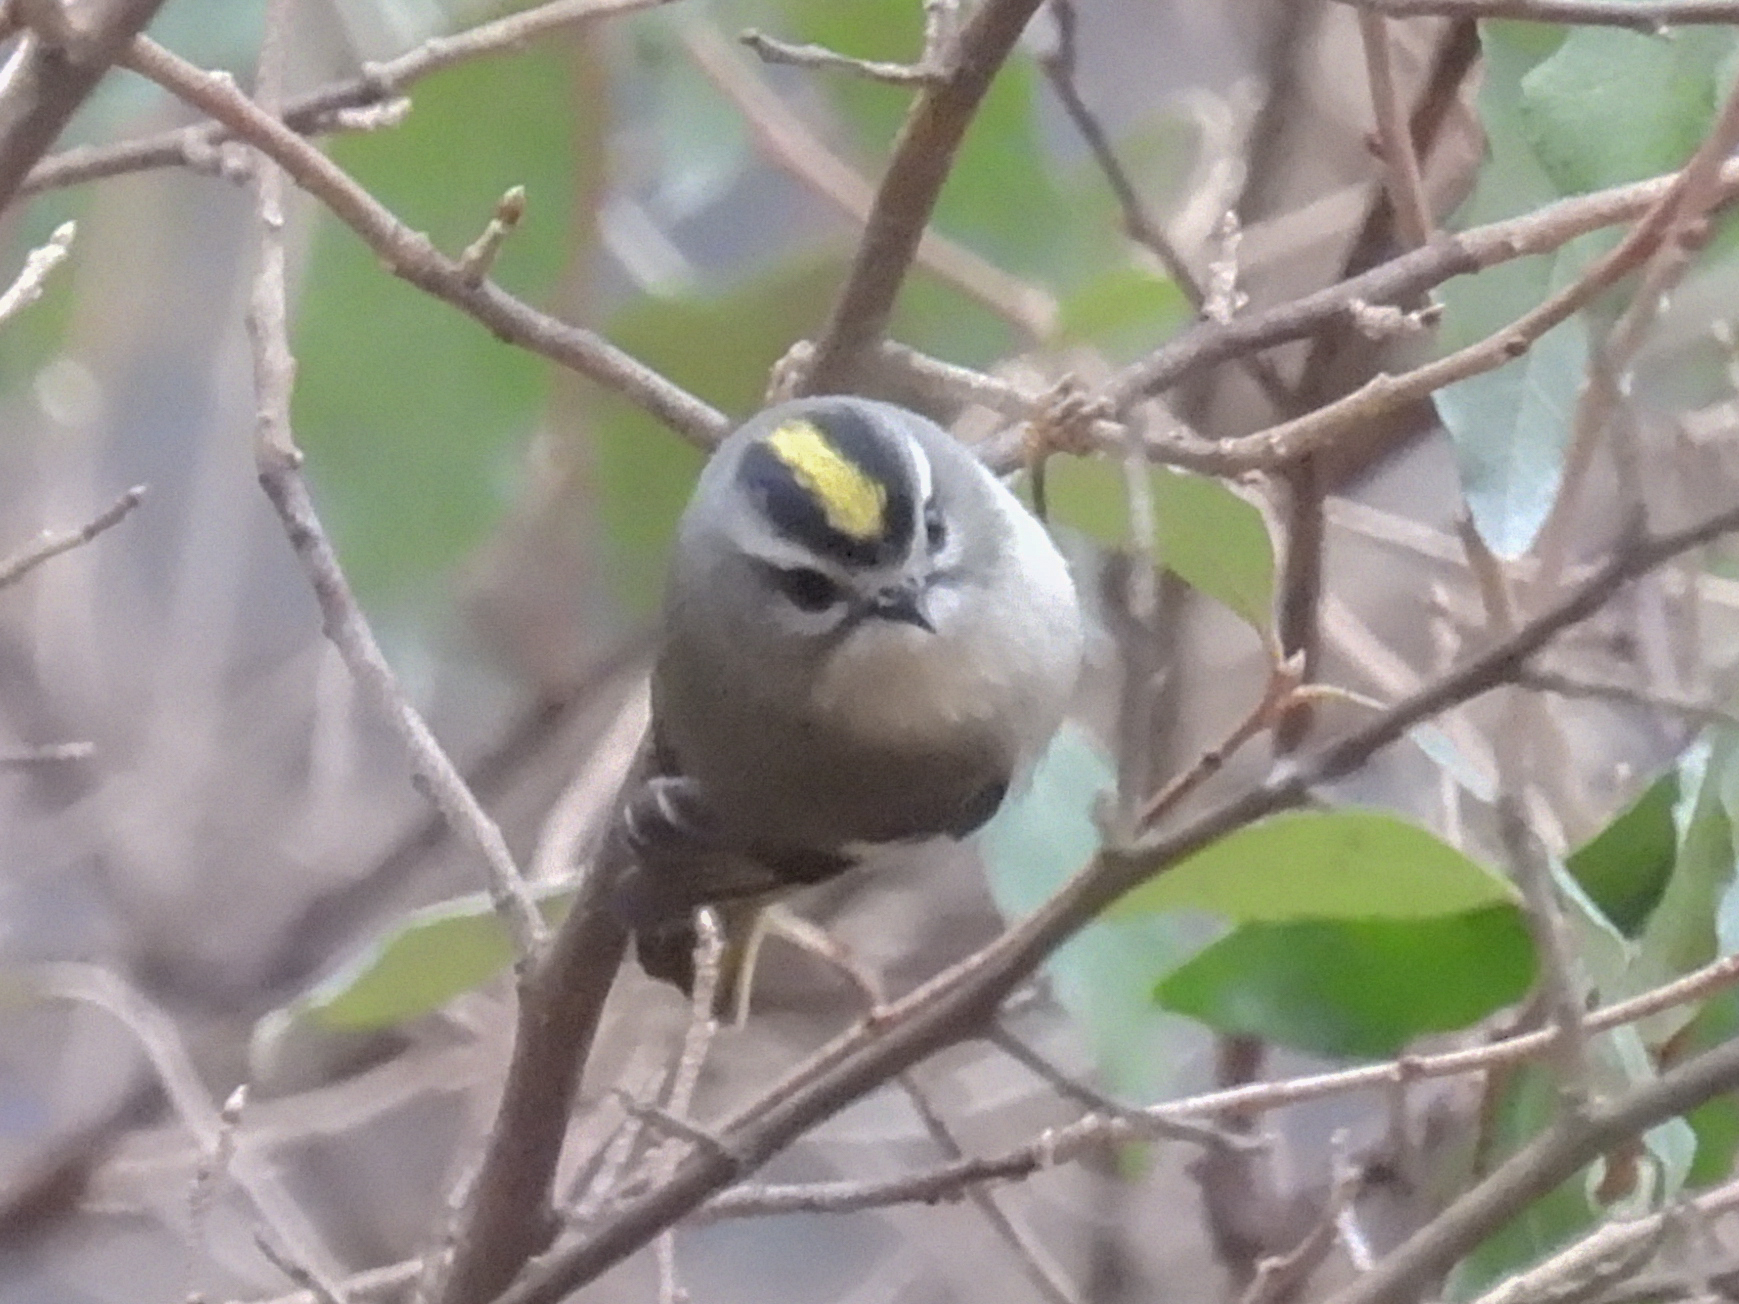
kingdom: Animalia
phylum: Chordata
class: Aves
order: Passeriformes
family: Regulidae
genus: Regulus
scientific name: Regulus satrapa
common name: Golden-crowned kinglet
